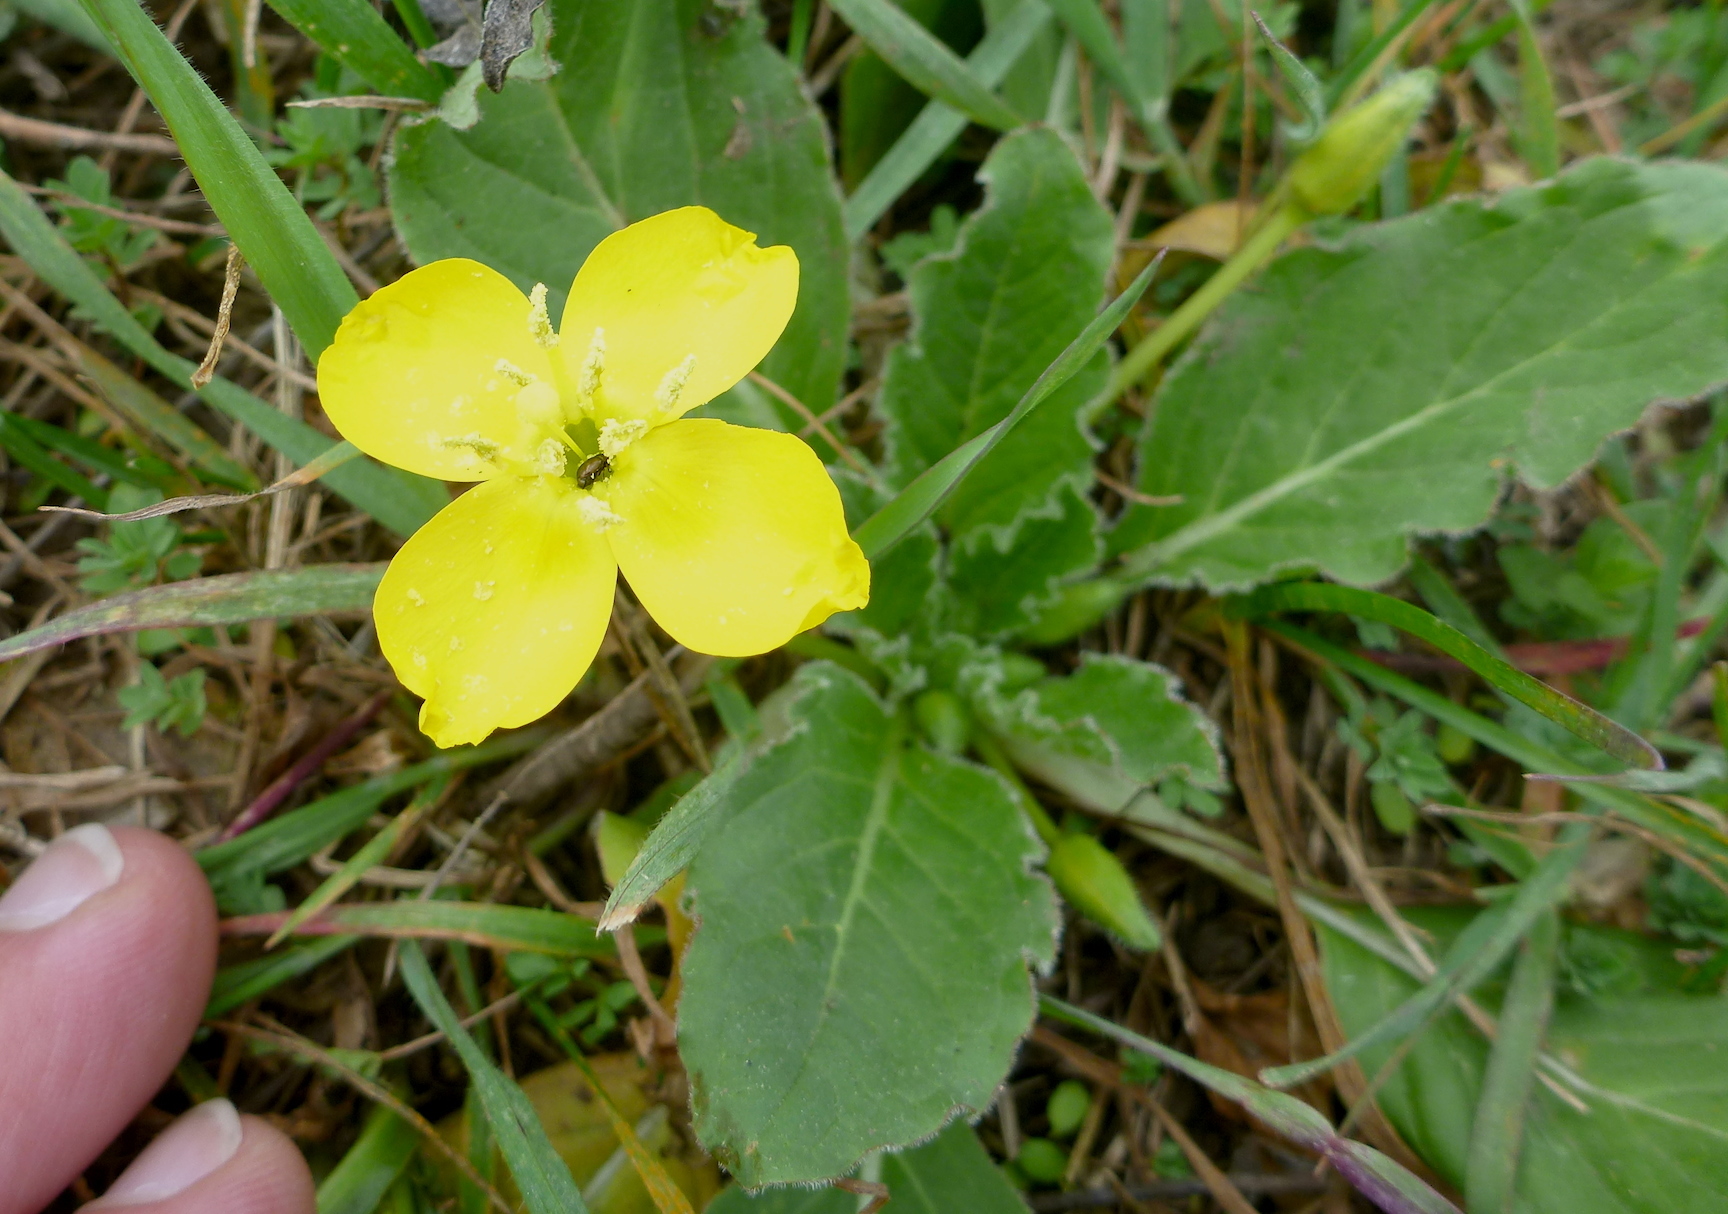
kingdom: Plantae
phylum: Tracheophyta
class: Magnoliopsida
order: Myrtales
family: Onagraceae
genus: Taraxia
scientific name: Taraxia ovata
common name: Goldeneggs
